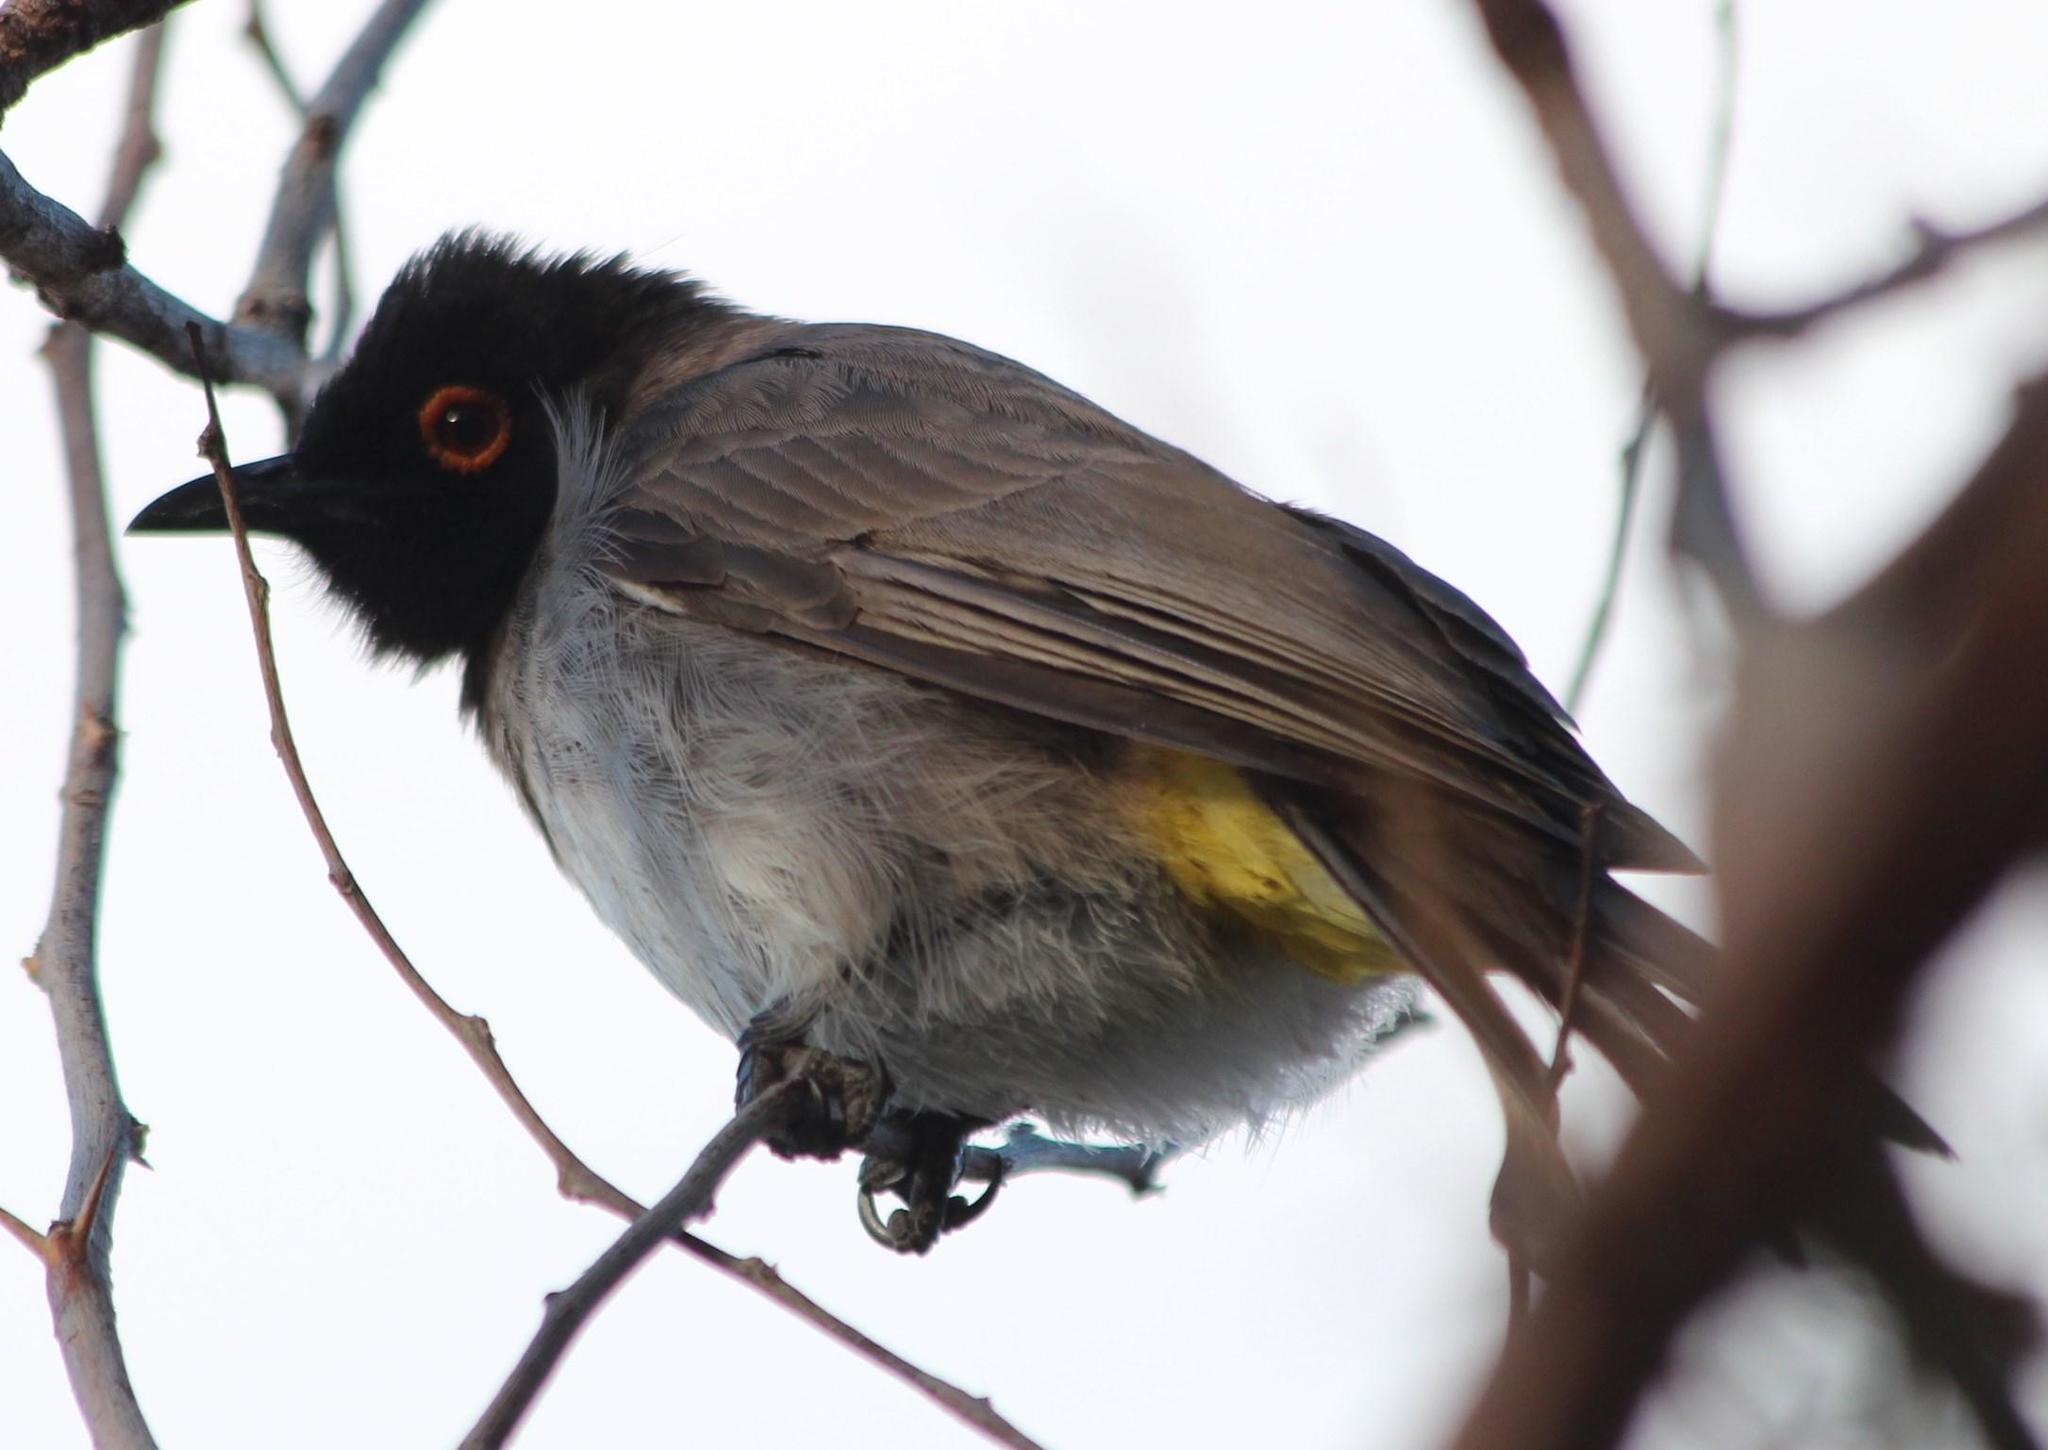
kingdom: Animalia
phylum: Chordata
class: Aves
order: Passeriformes
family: Pycnonotidae
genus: Pycnonotus
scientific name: Pycnonotus nigricans
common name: African red-eyed bulbul
